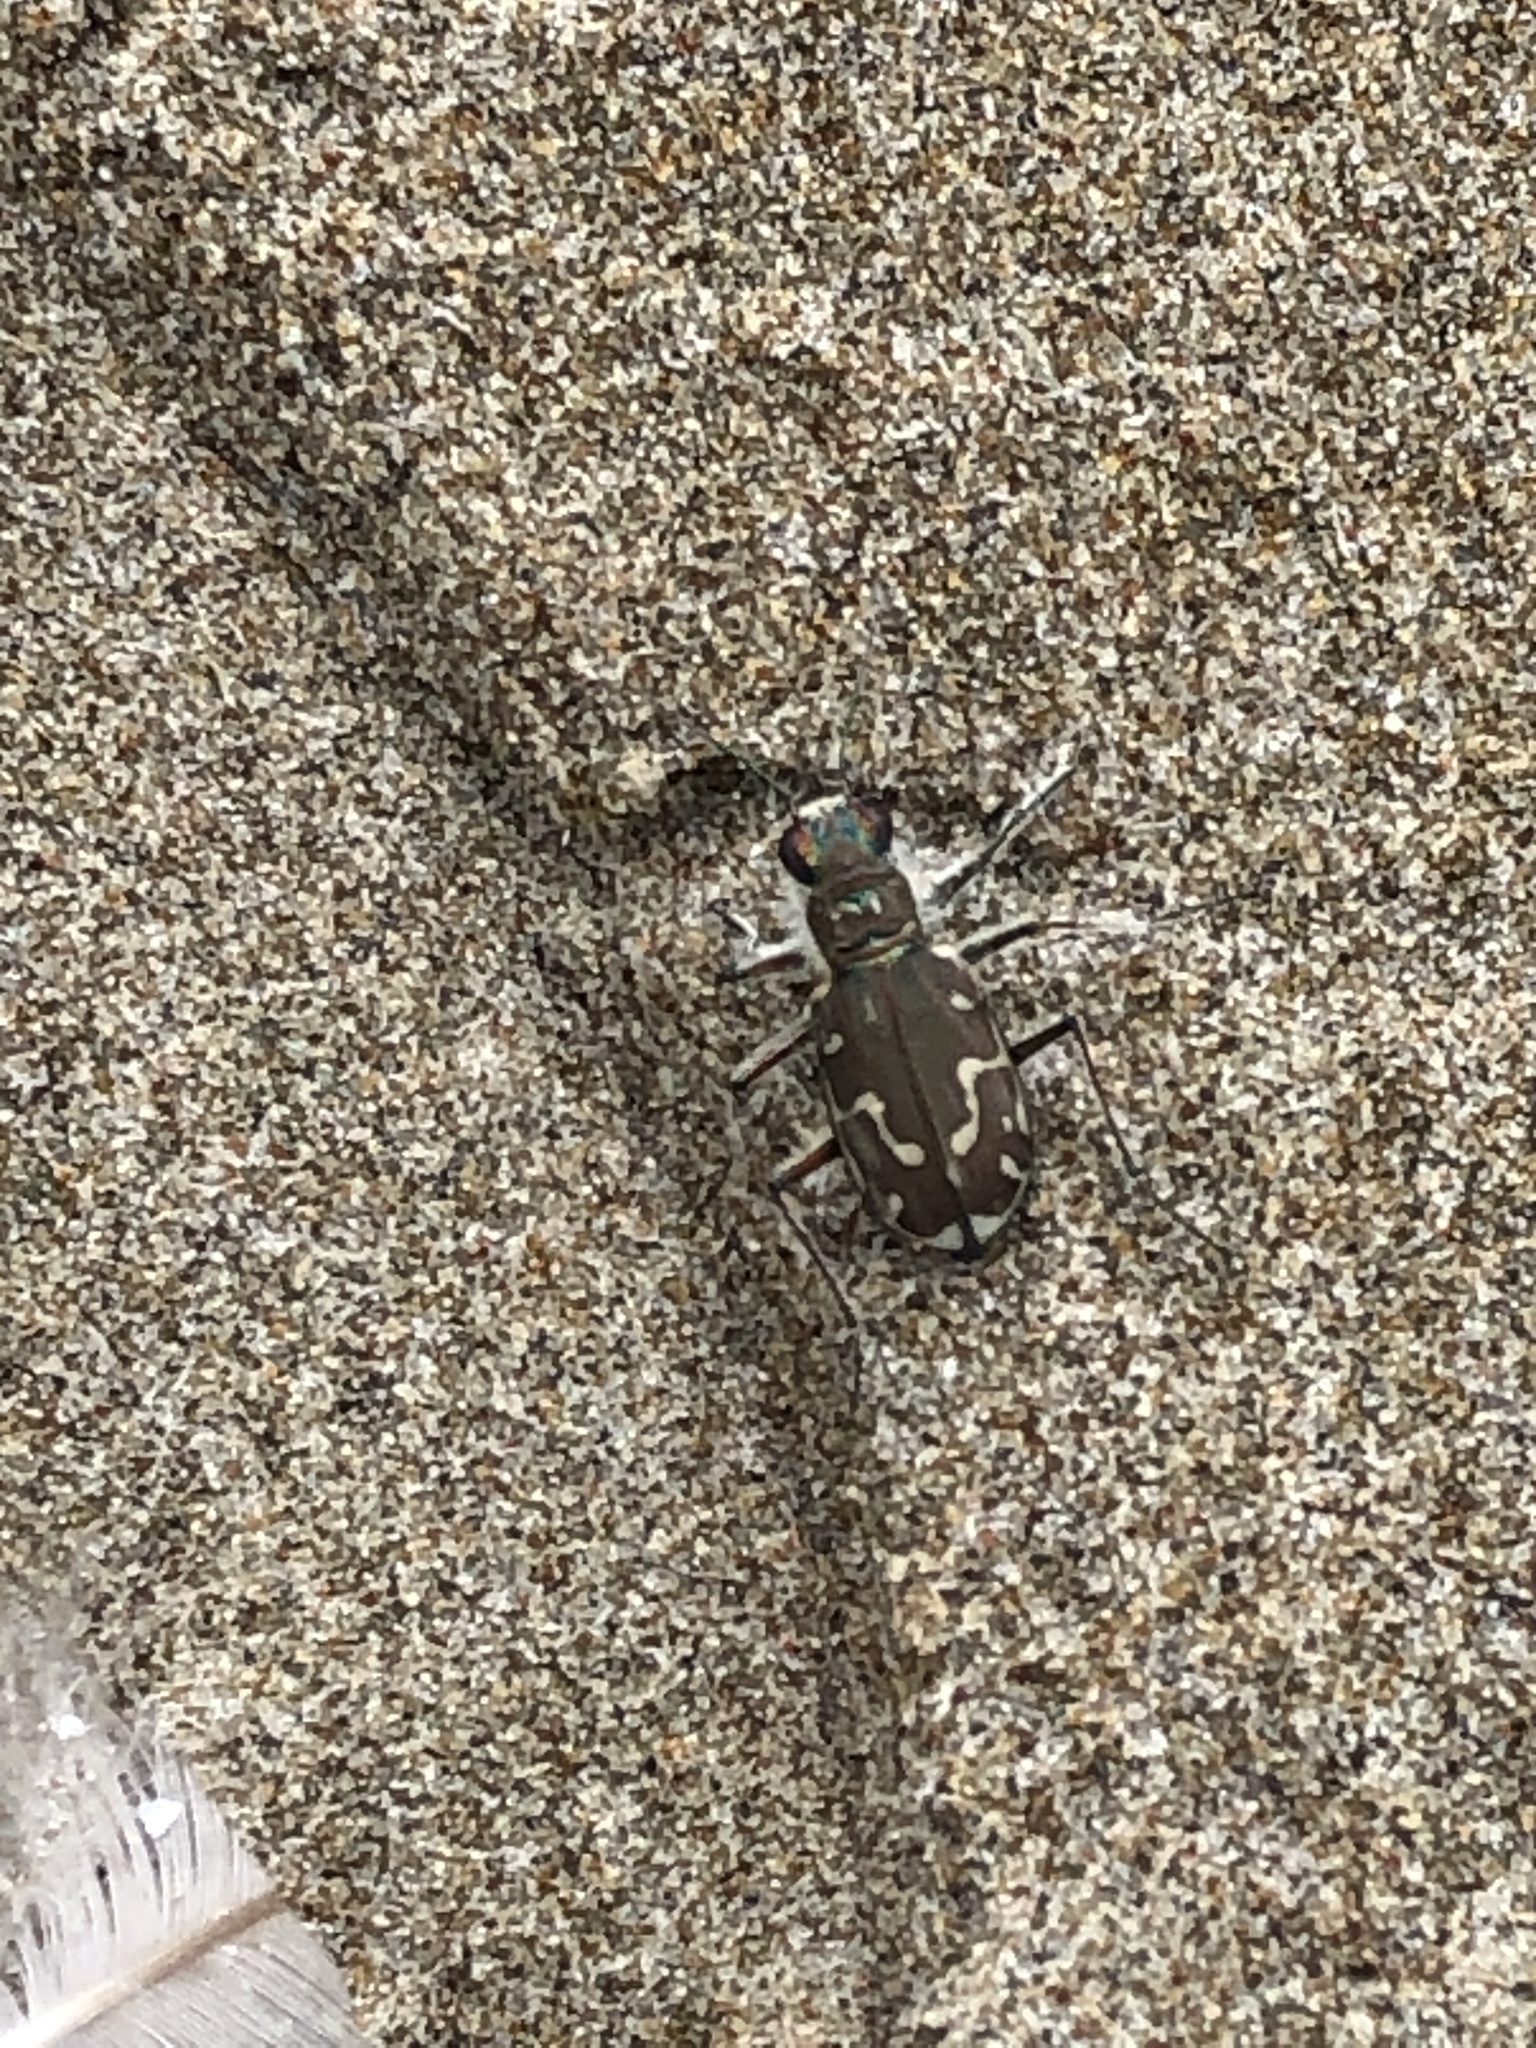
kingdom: Animalia
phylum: Arthropoda
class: Insecta
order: Coleoptera
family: Carabidae
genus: Cicindela
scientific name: Cicindela hirticollis
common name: Hairy-necked tiger beetle
